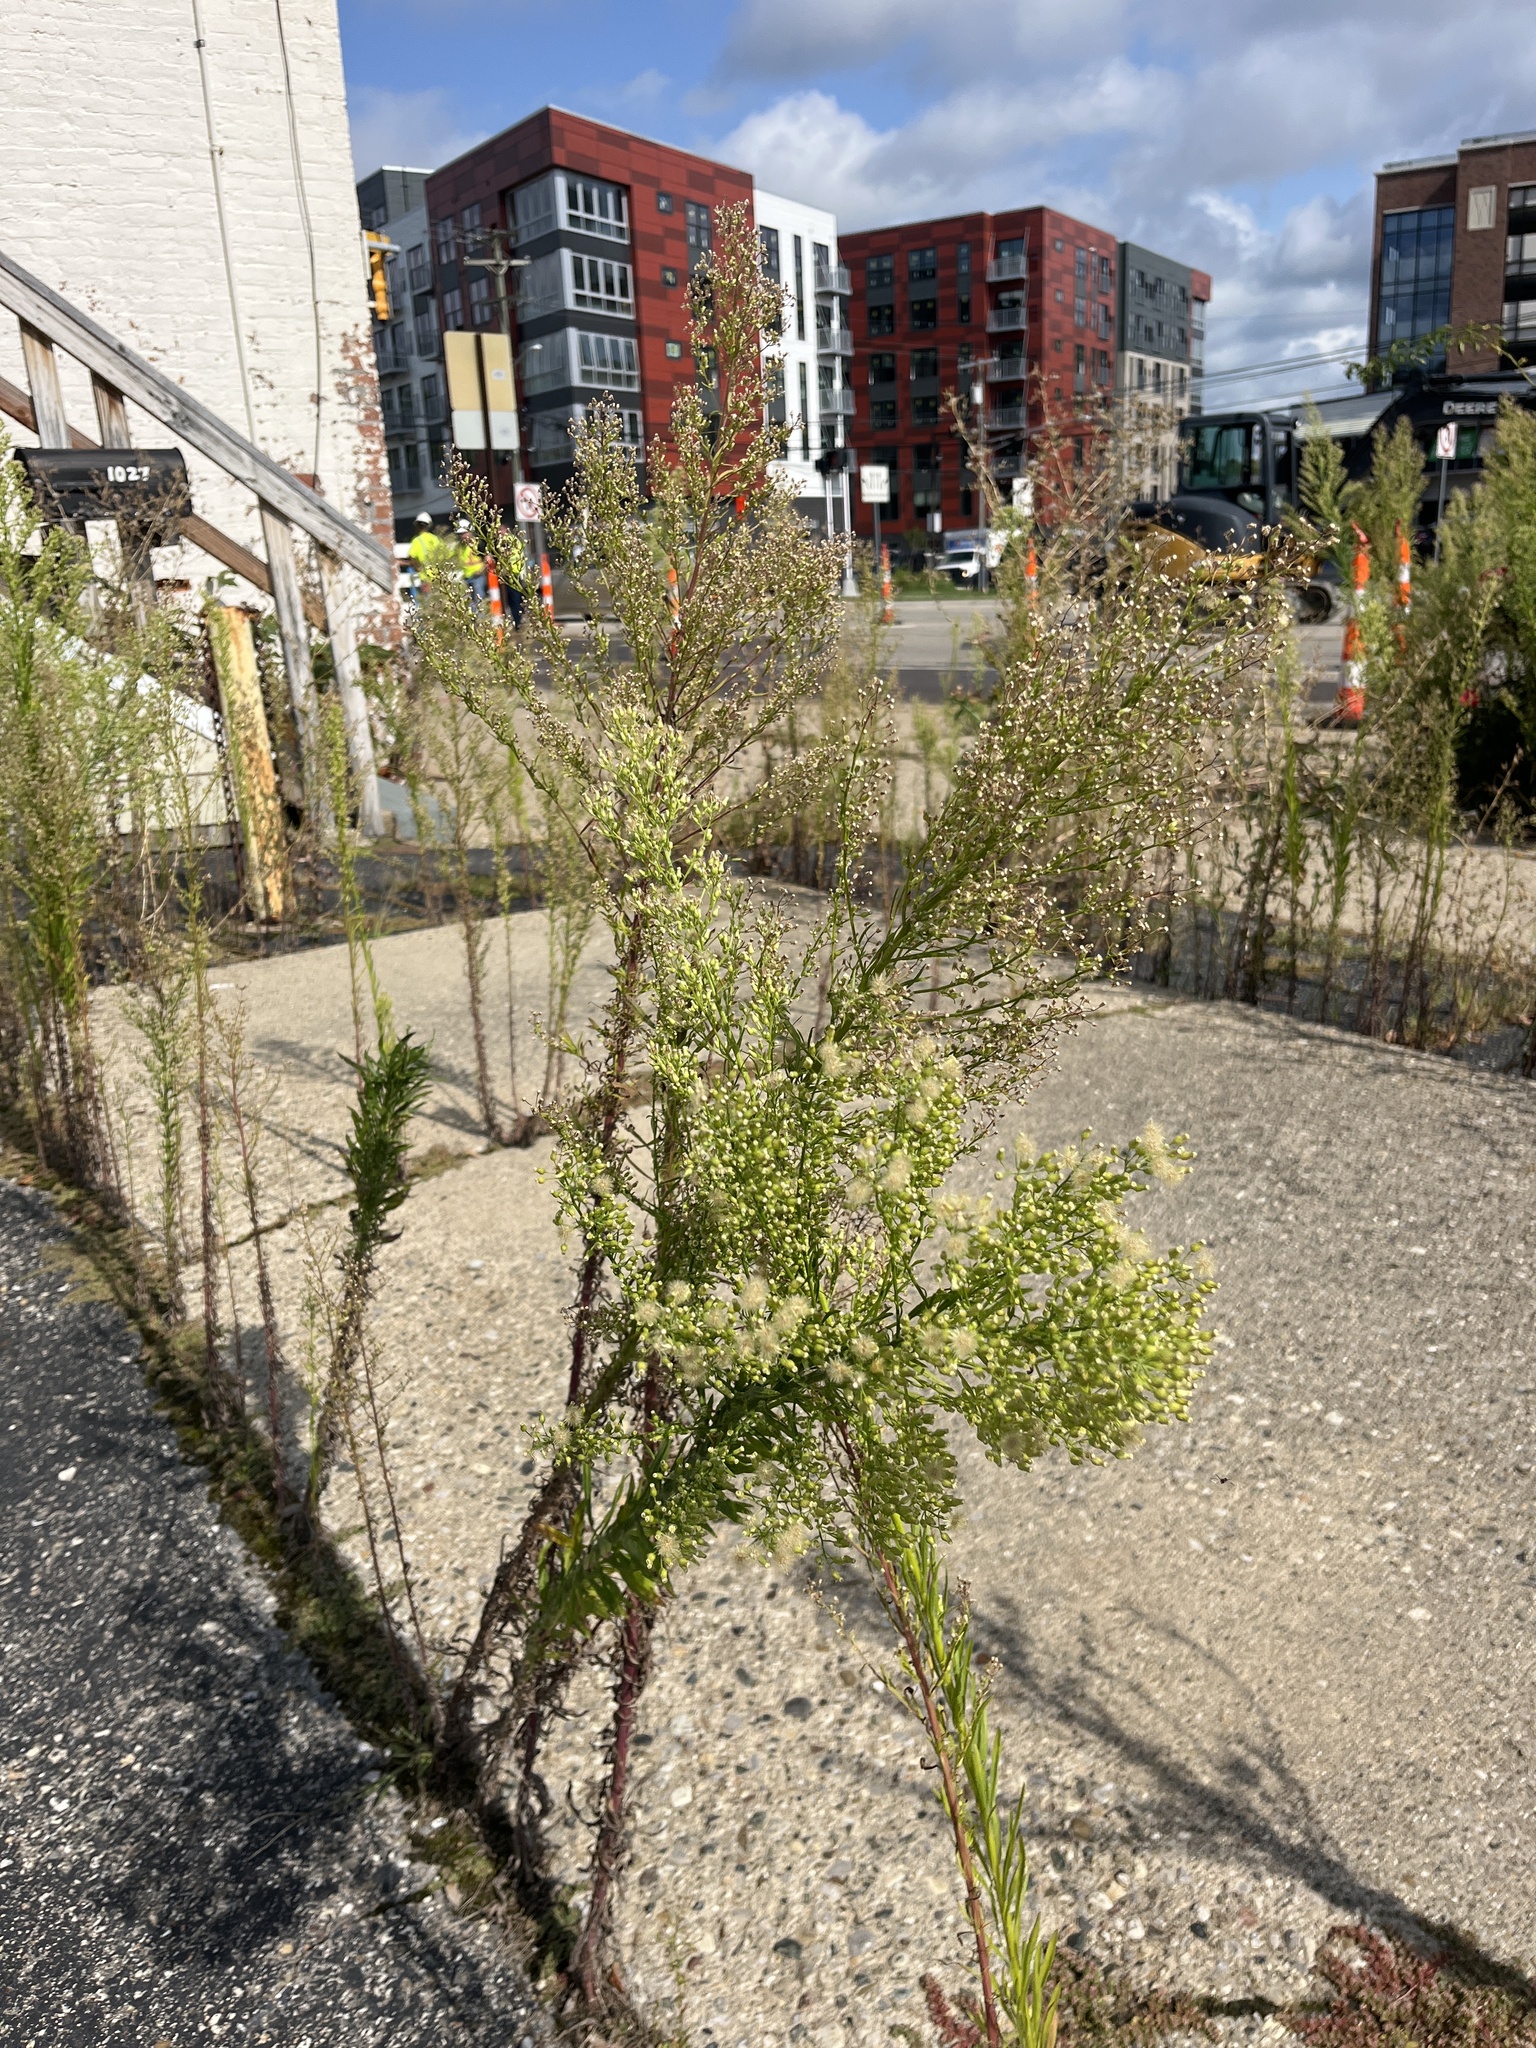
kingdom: Plantae
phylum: Tracheophyta
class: Magnoliopsida
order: Asterales
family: Asteraceae
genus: Erigeron
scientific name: Erigeron canadensis
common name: Canadian fleabane
